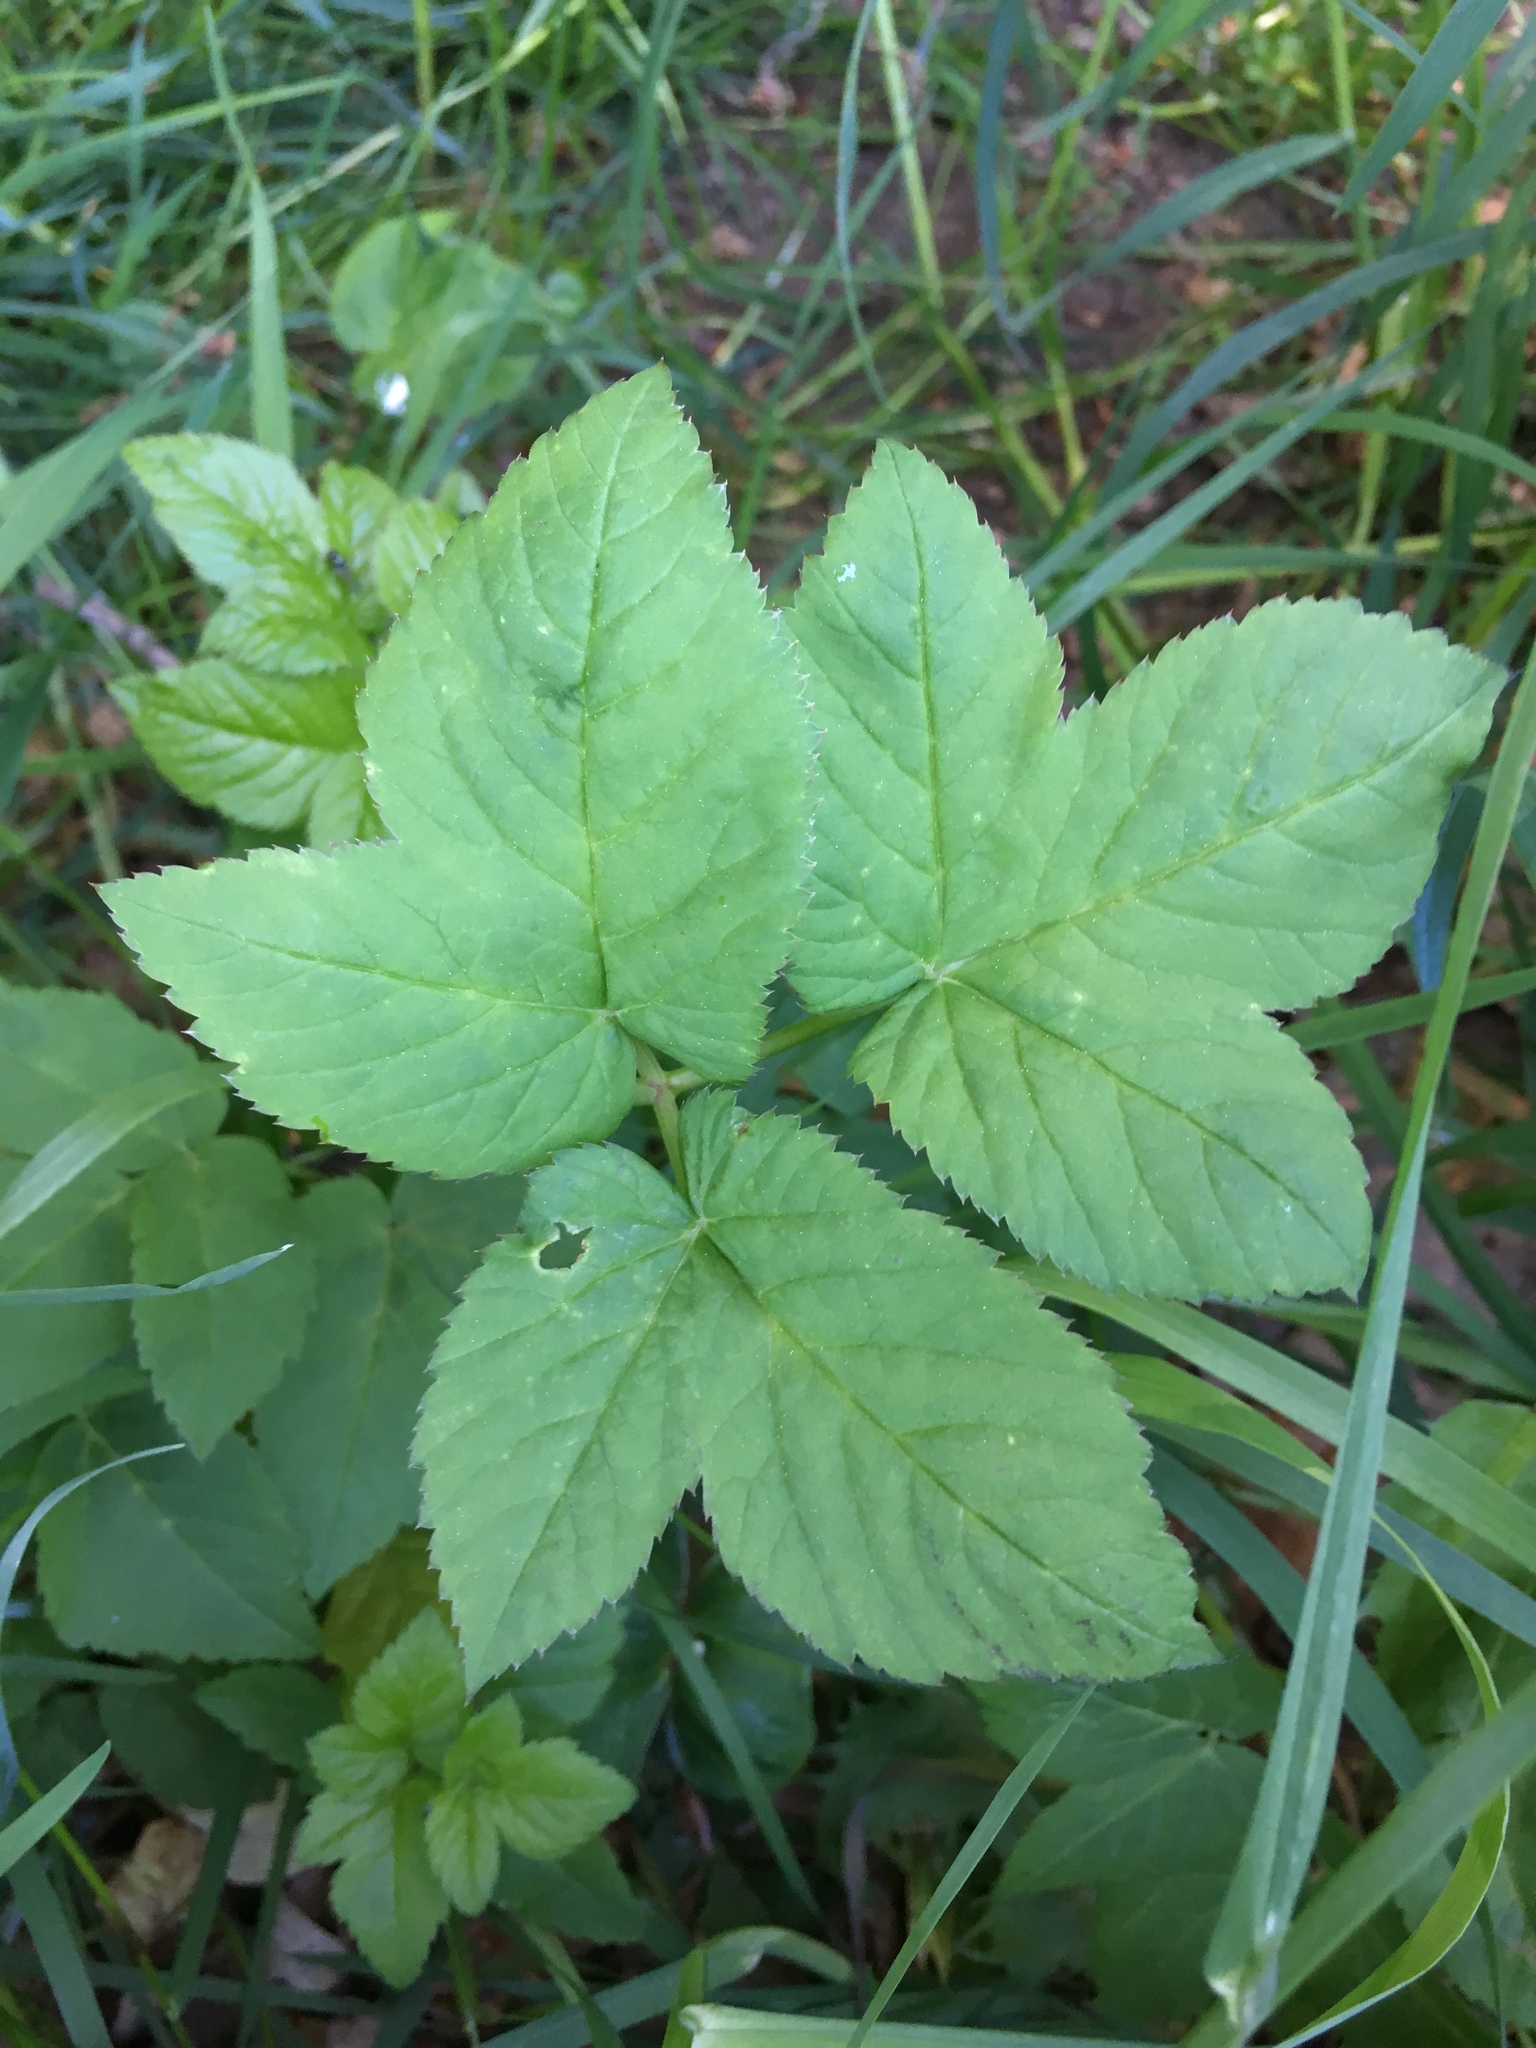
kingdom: Plantae
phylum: Tracheophyta
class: Magnoliopsida
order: Apiales
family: Apiaceae
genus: Aegopodium
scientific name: Aegopodium podagraria
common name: Ground-elder
